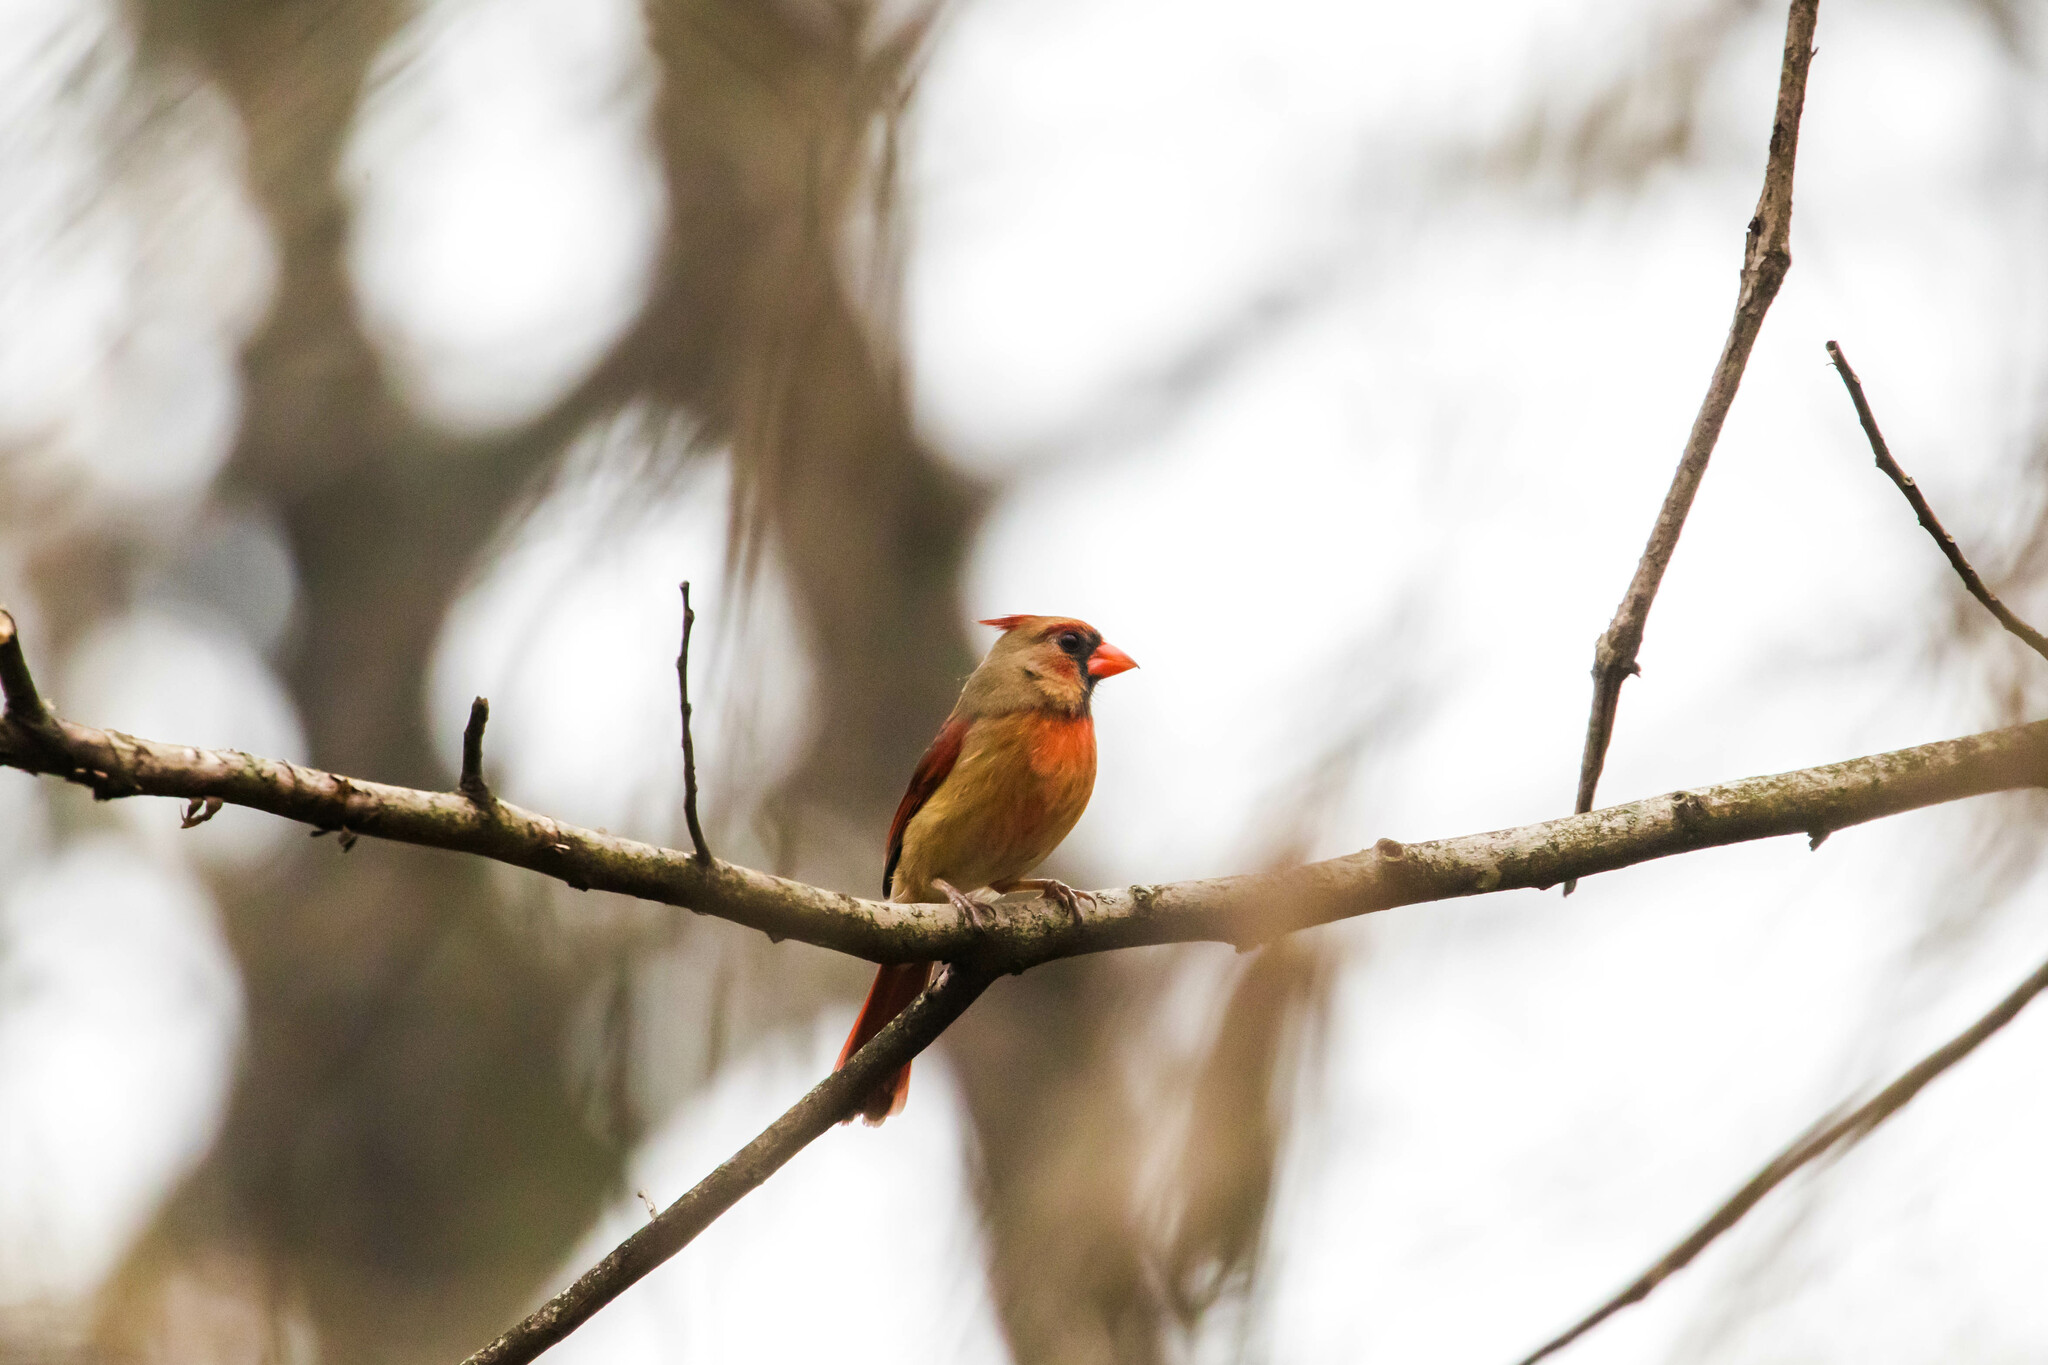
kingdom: Animalia
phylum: Chordata
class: Aves
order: Passeriformes
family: Cardinalidae
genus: Cardinalis
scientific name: Cardinalis cardinalis
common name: Northern cardinal
